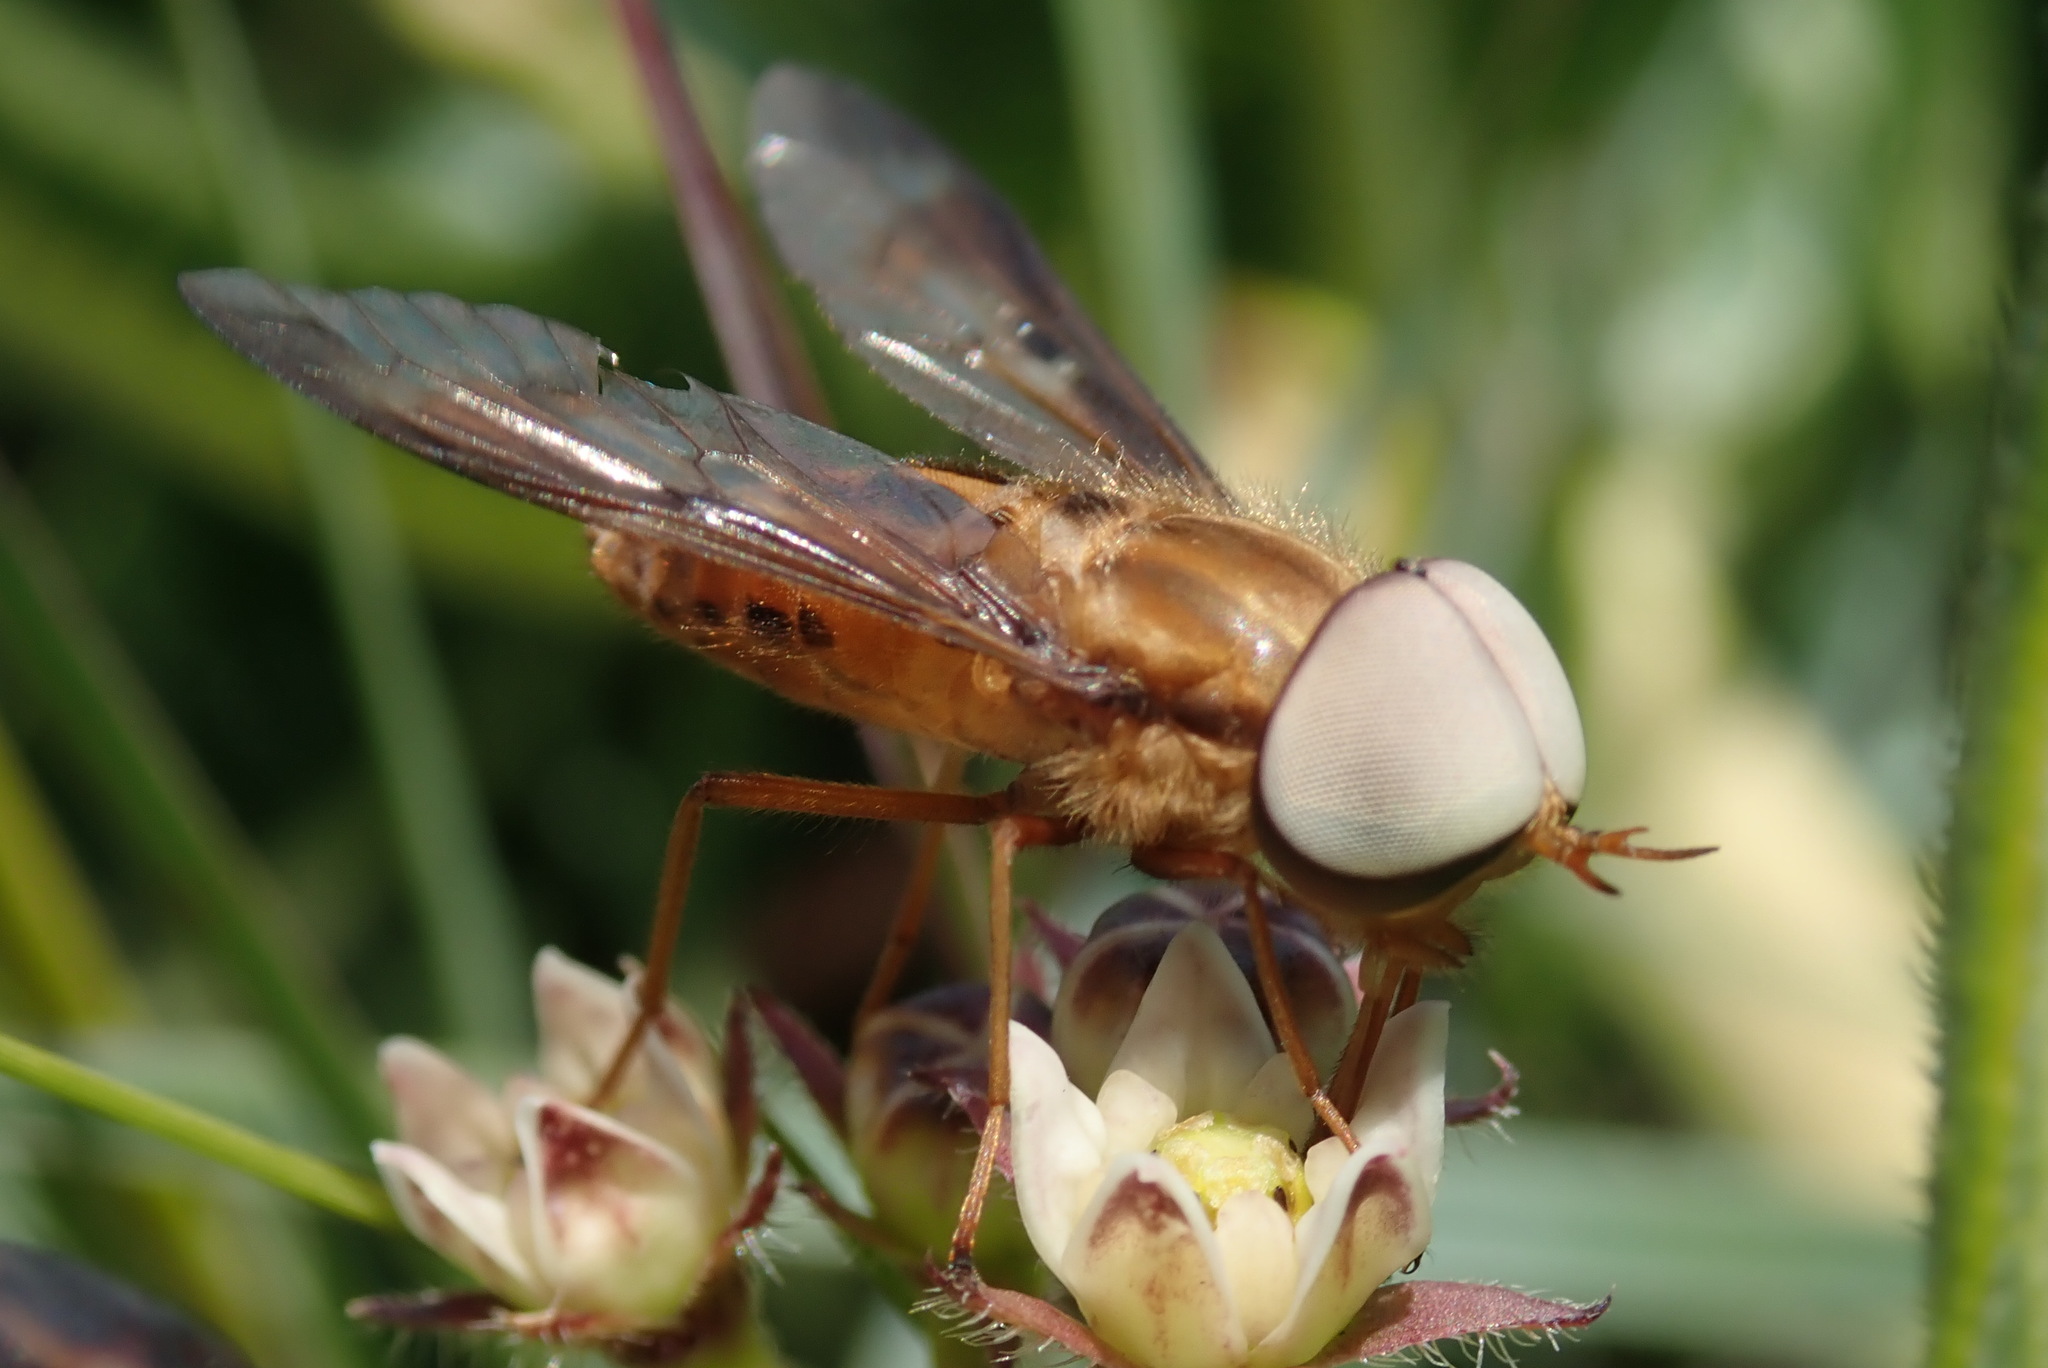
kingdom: Animalia
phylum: Arthropoda
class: Insecta
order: Diptera
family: Tabanidae
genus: Tabanocella
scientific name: Tabanocella denticornis
